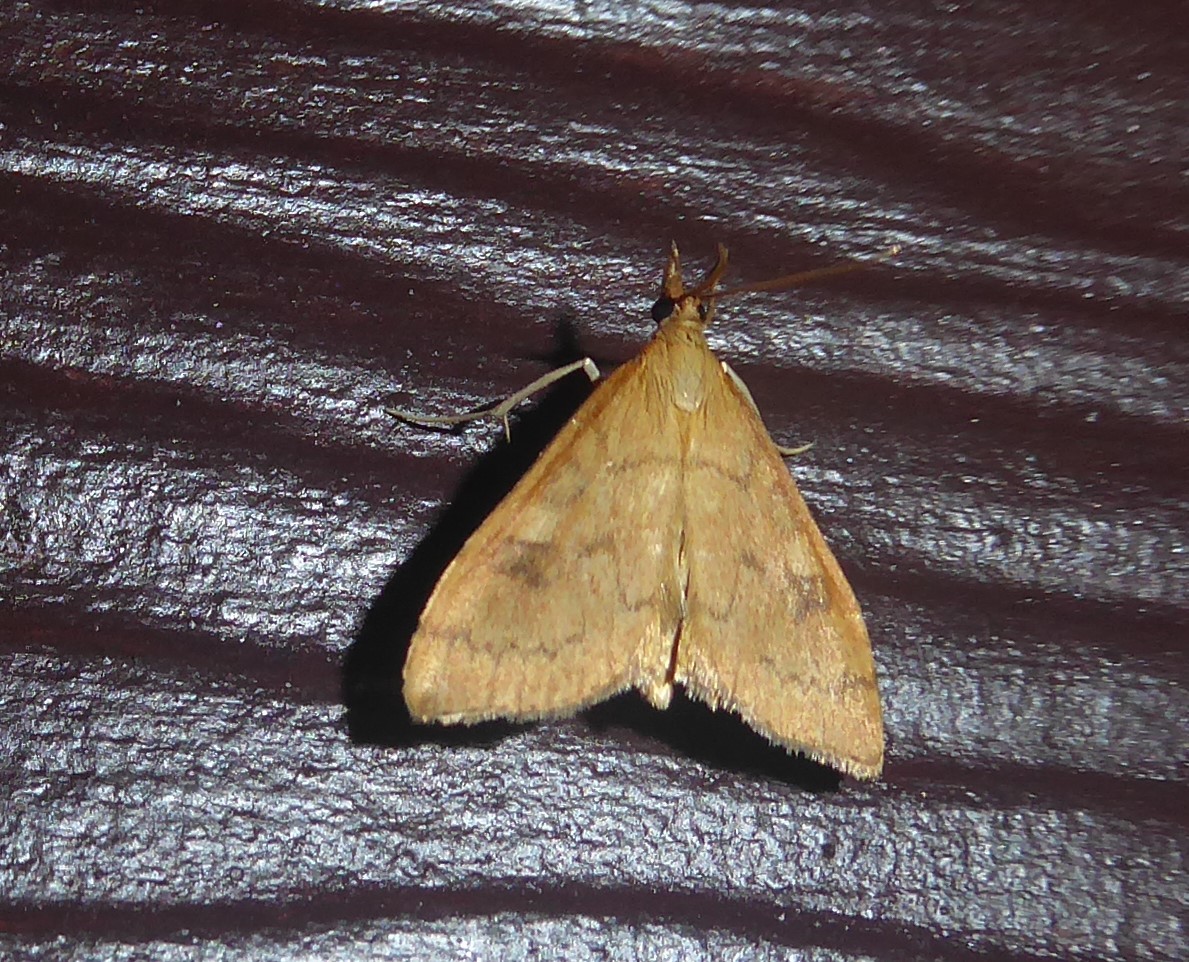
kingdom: Animalia
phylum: Arthropoda
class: Insecta
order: Lepidoptera
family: Crambidae
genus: Udea
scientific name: Udea Mnesictena flavidalis
